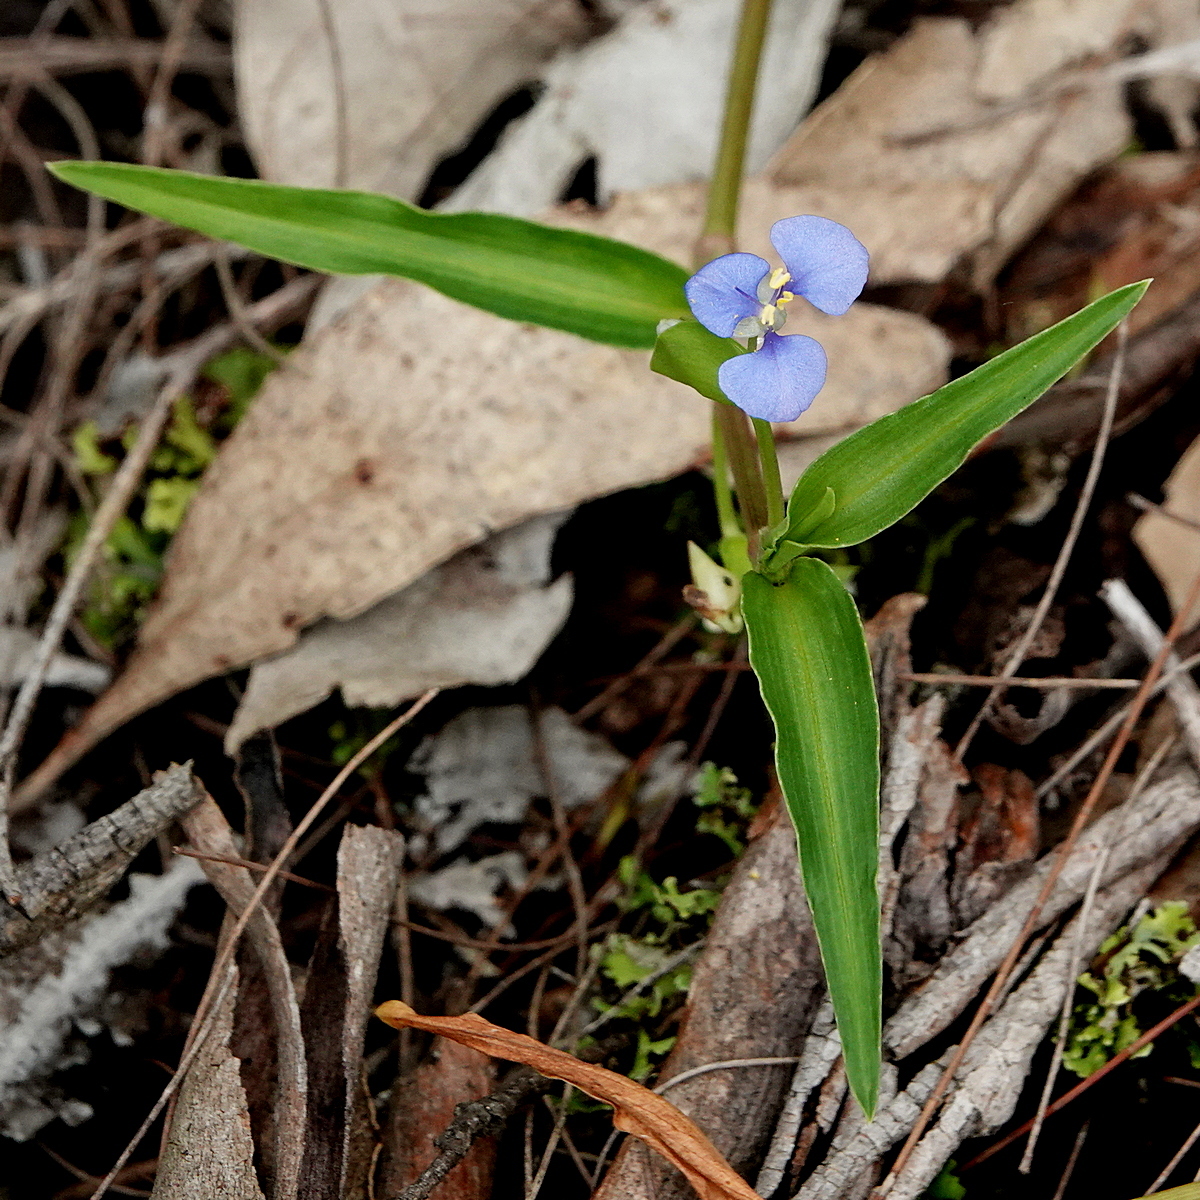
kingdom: Plantae
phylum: Tracheophyta
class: Liliopsida
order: Commelinales
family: Commelinaceae
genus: Commelina
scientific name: Commelina cyanea
